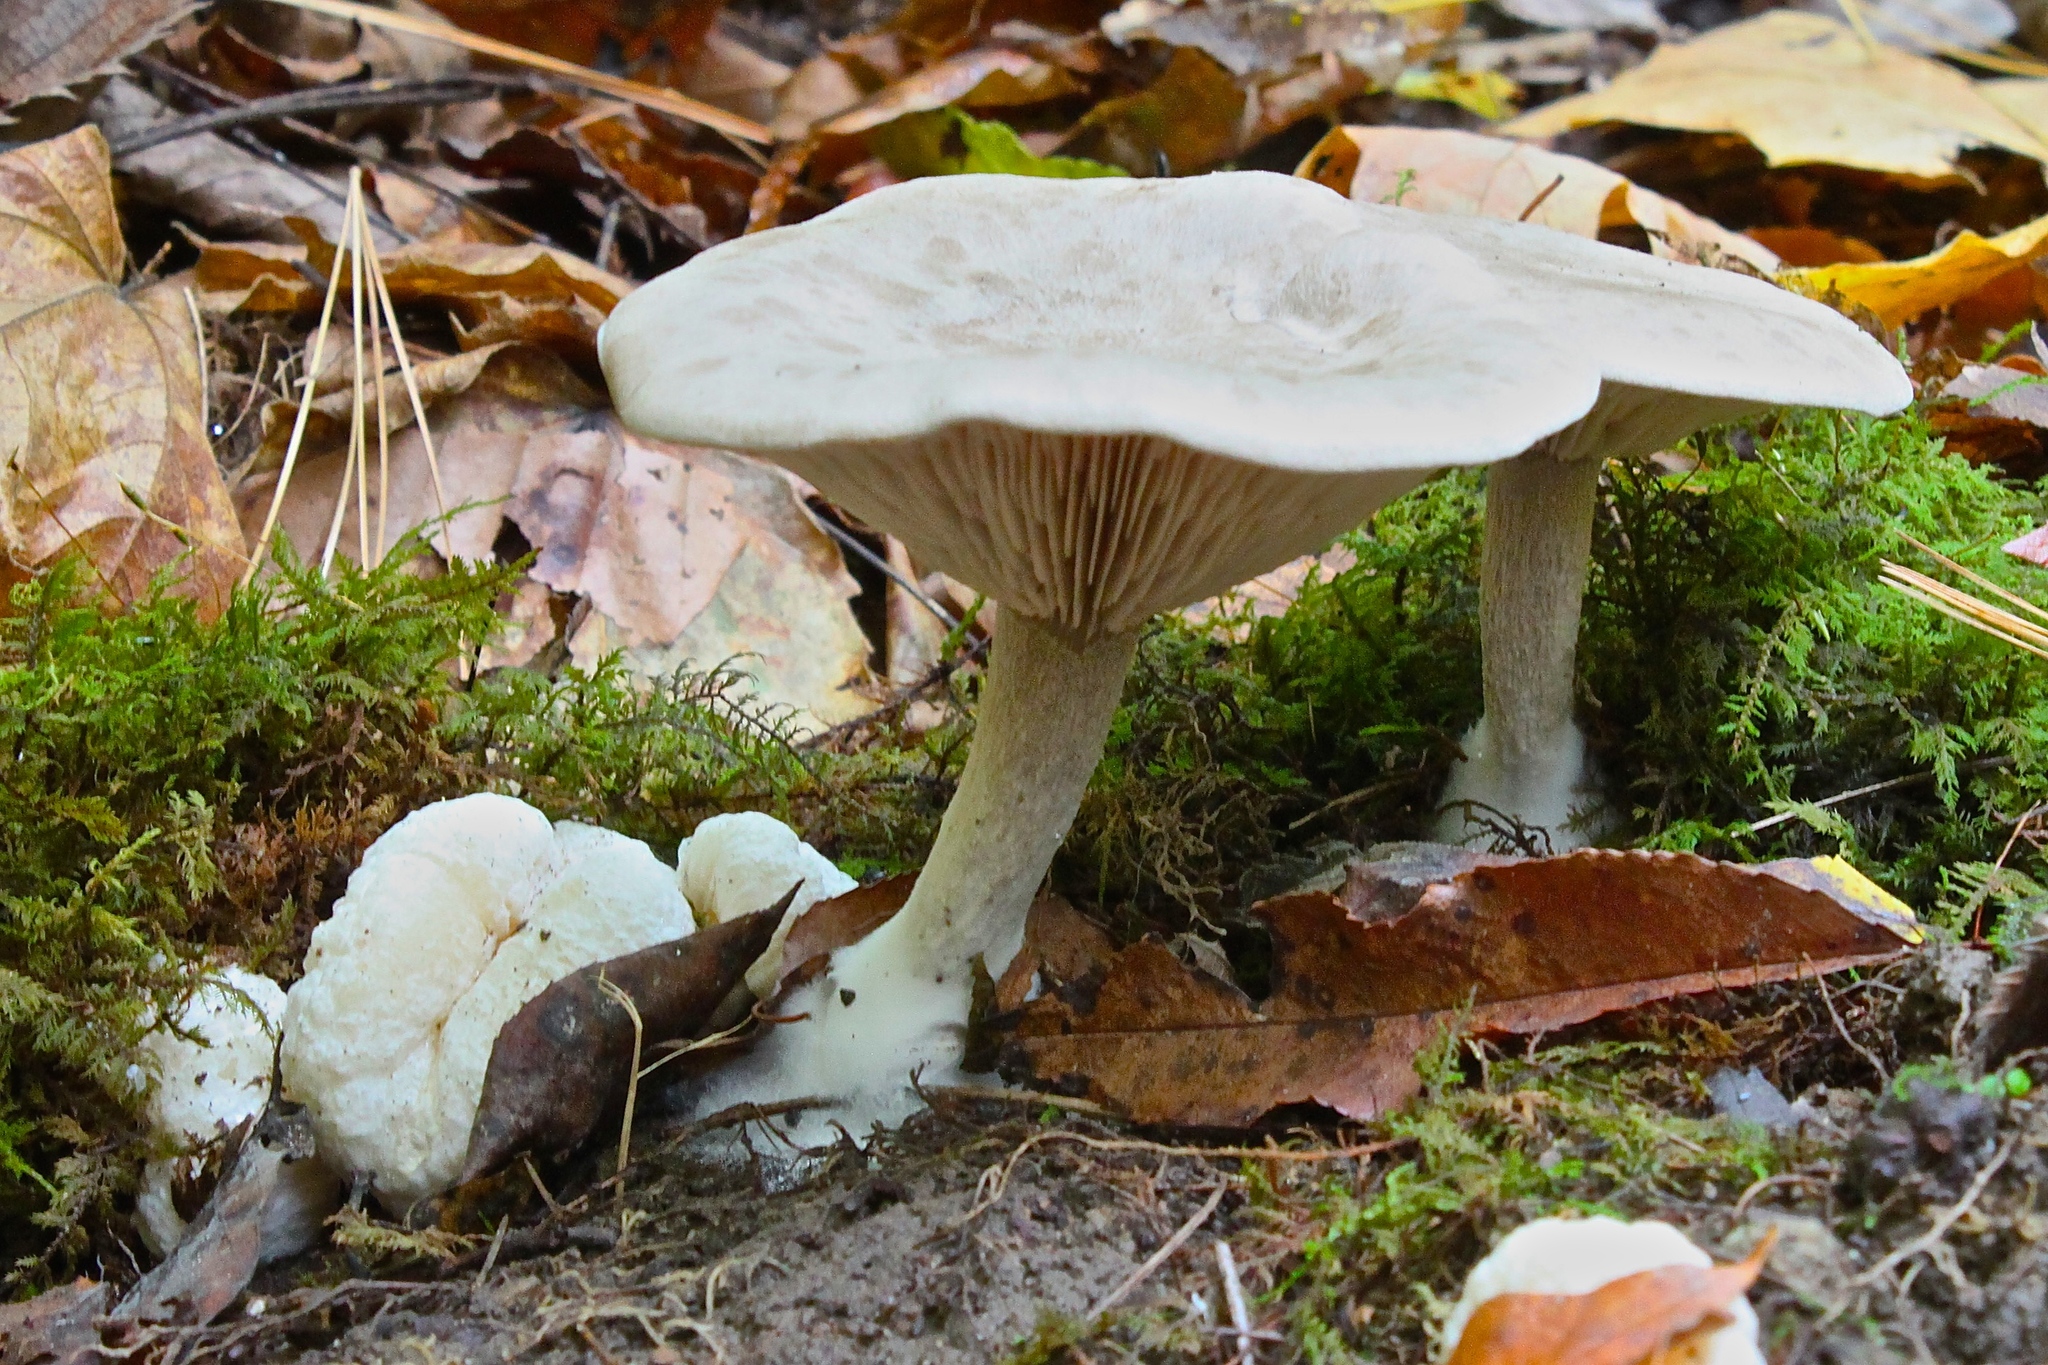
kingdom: Fungi
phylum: Basidiomycota
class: Agaricomycetes
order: Agaricales
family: Entolomataceae
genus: Entoloma
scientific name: Entoloma abortivum
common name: Aborted entoloma
